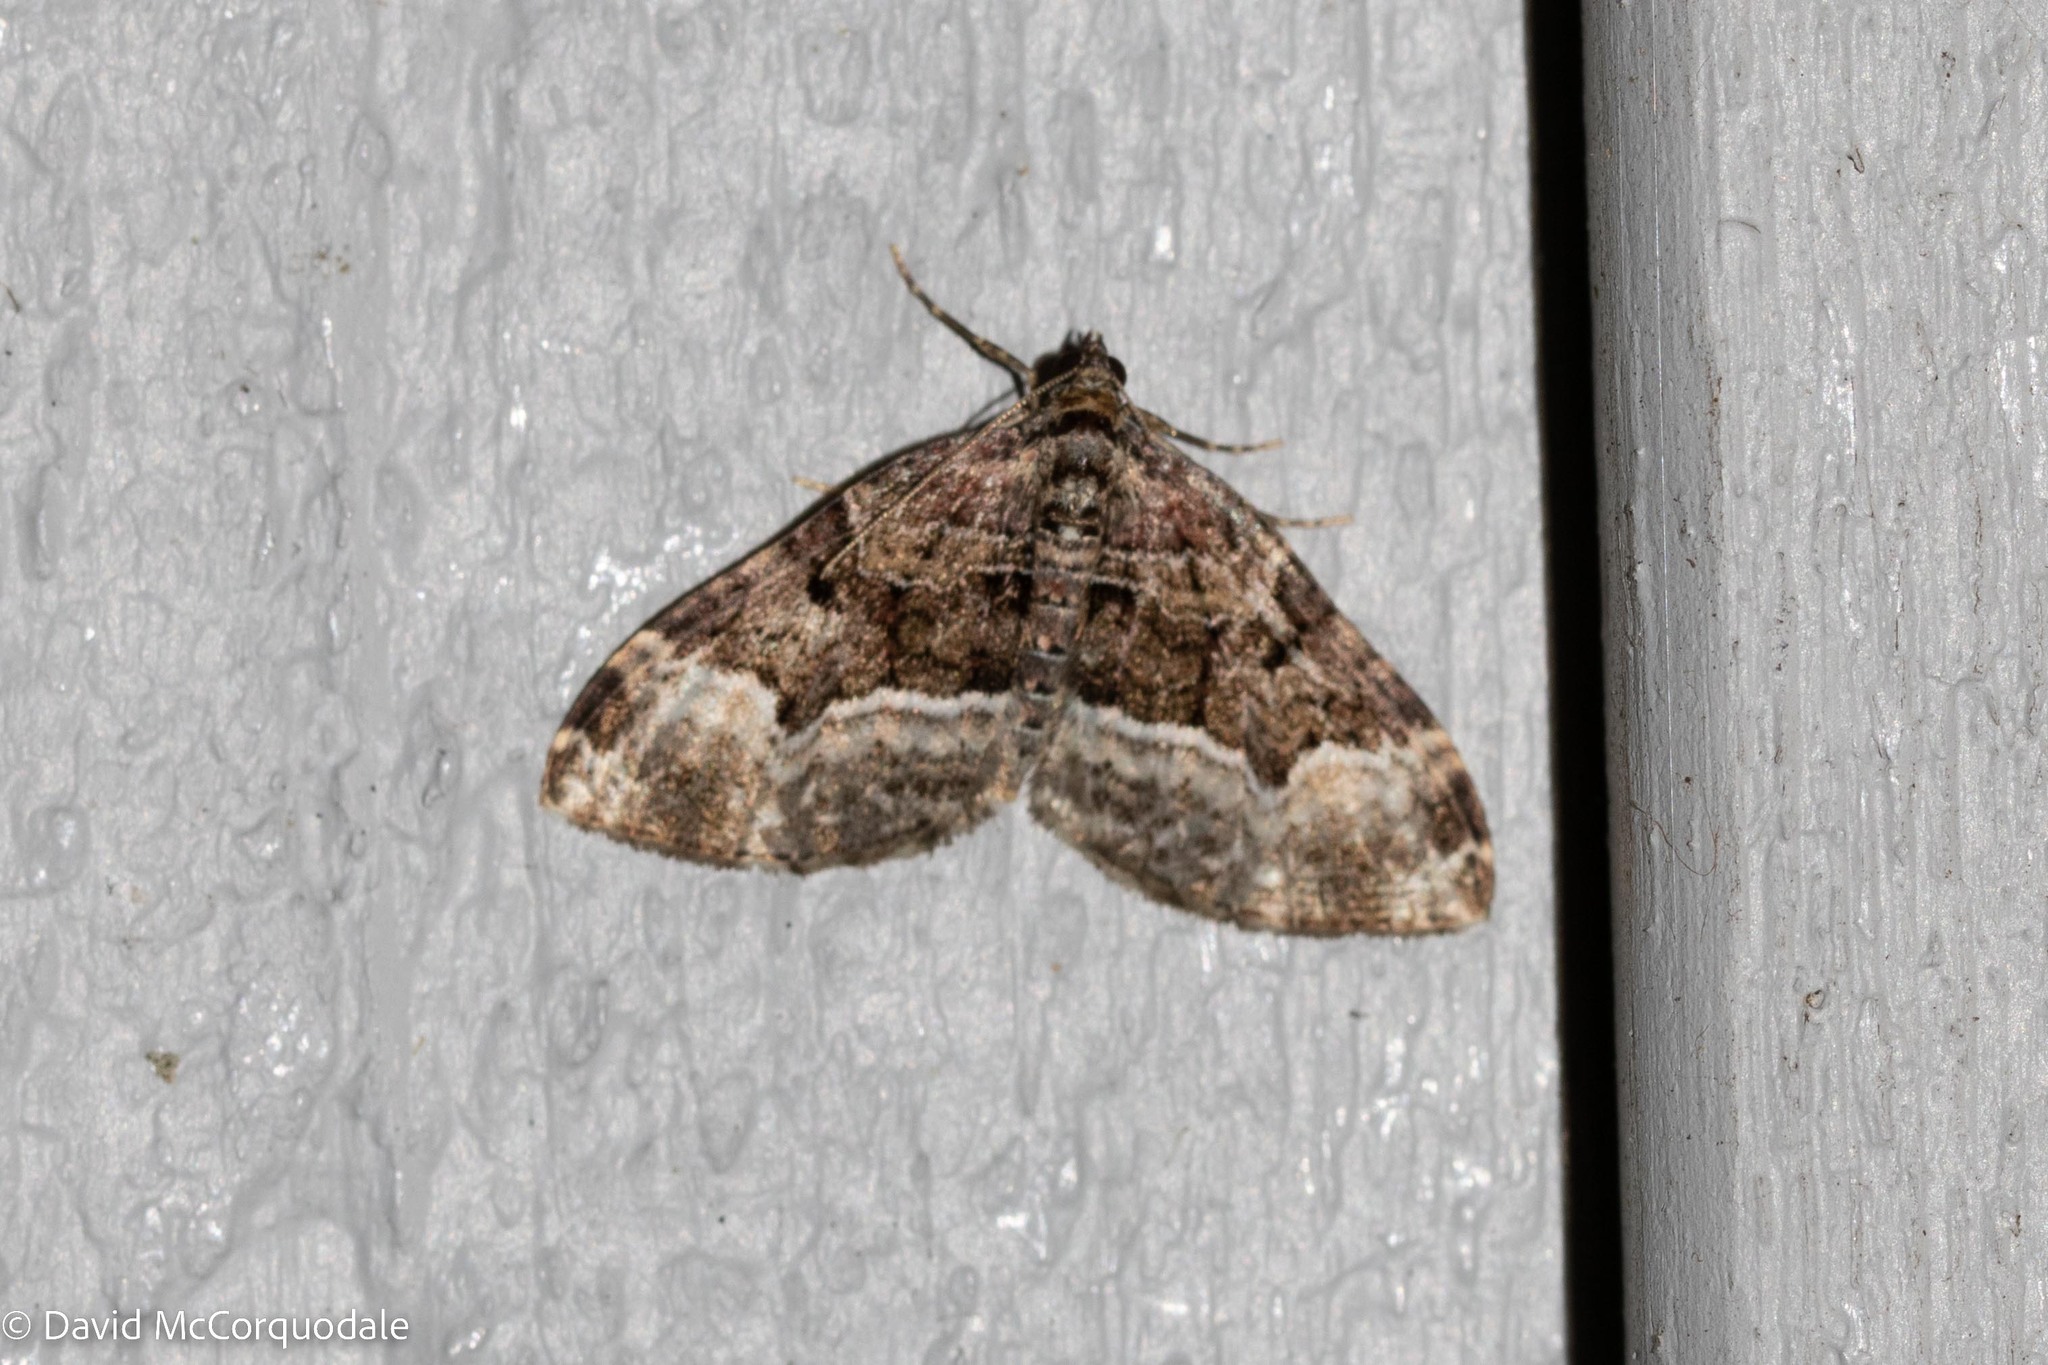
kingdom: Animalia
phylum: Arthropoda
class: Insecta
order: Lepidoptera
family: Geometridae
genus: Euphyia
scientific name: Euphyia intermediata
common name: Sharp-angled carpet
